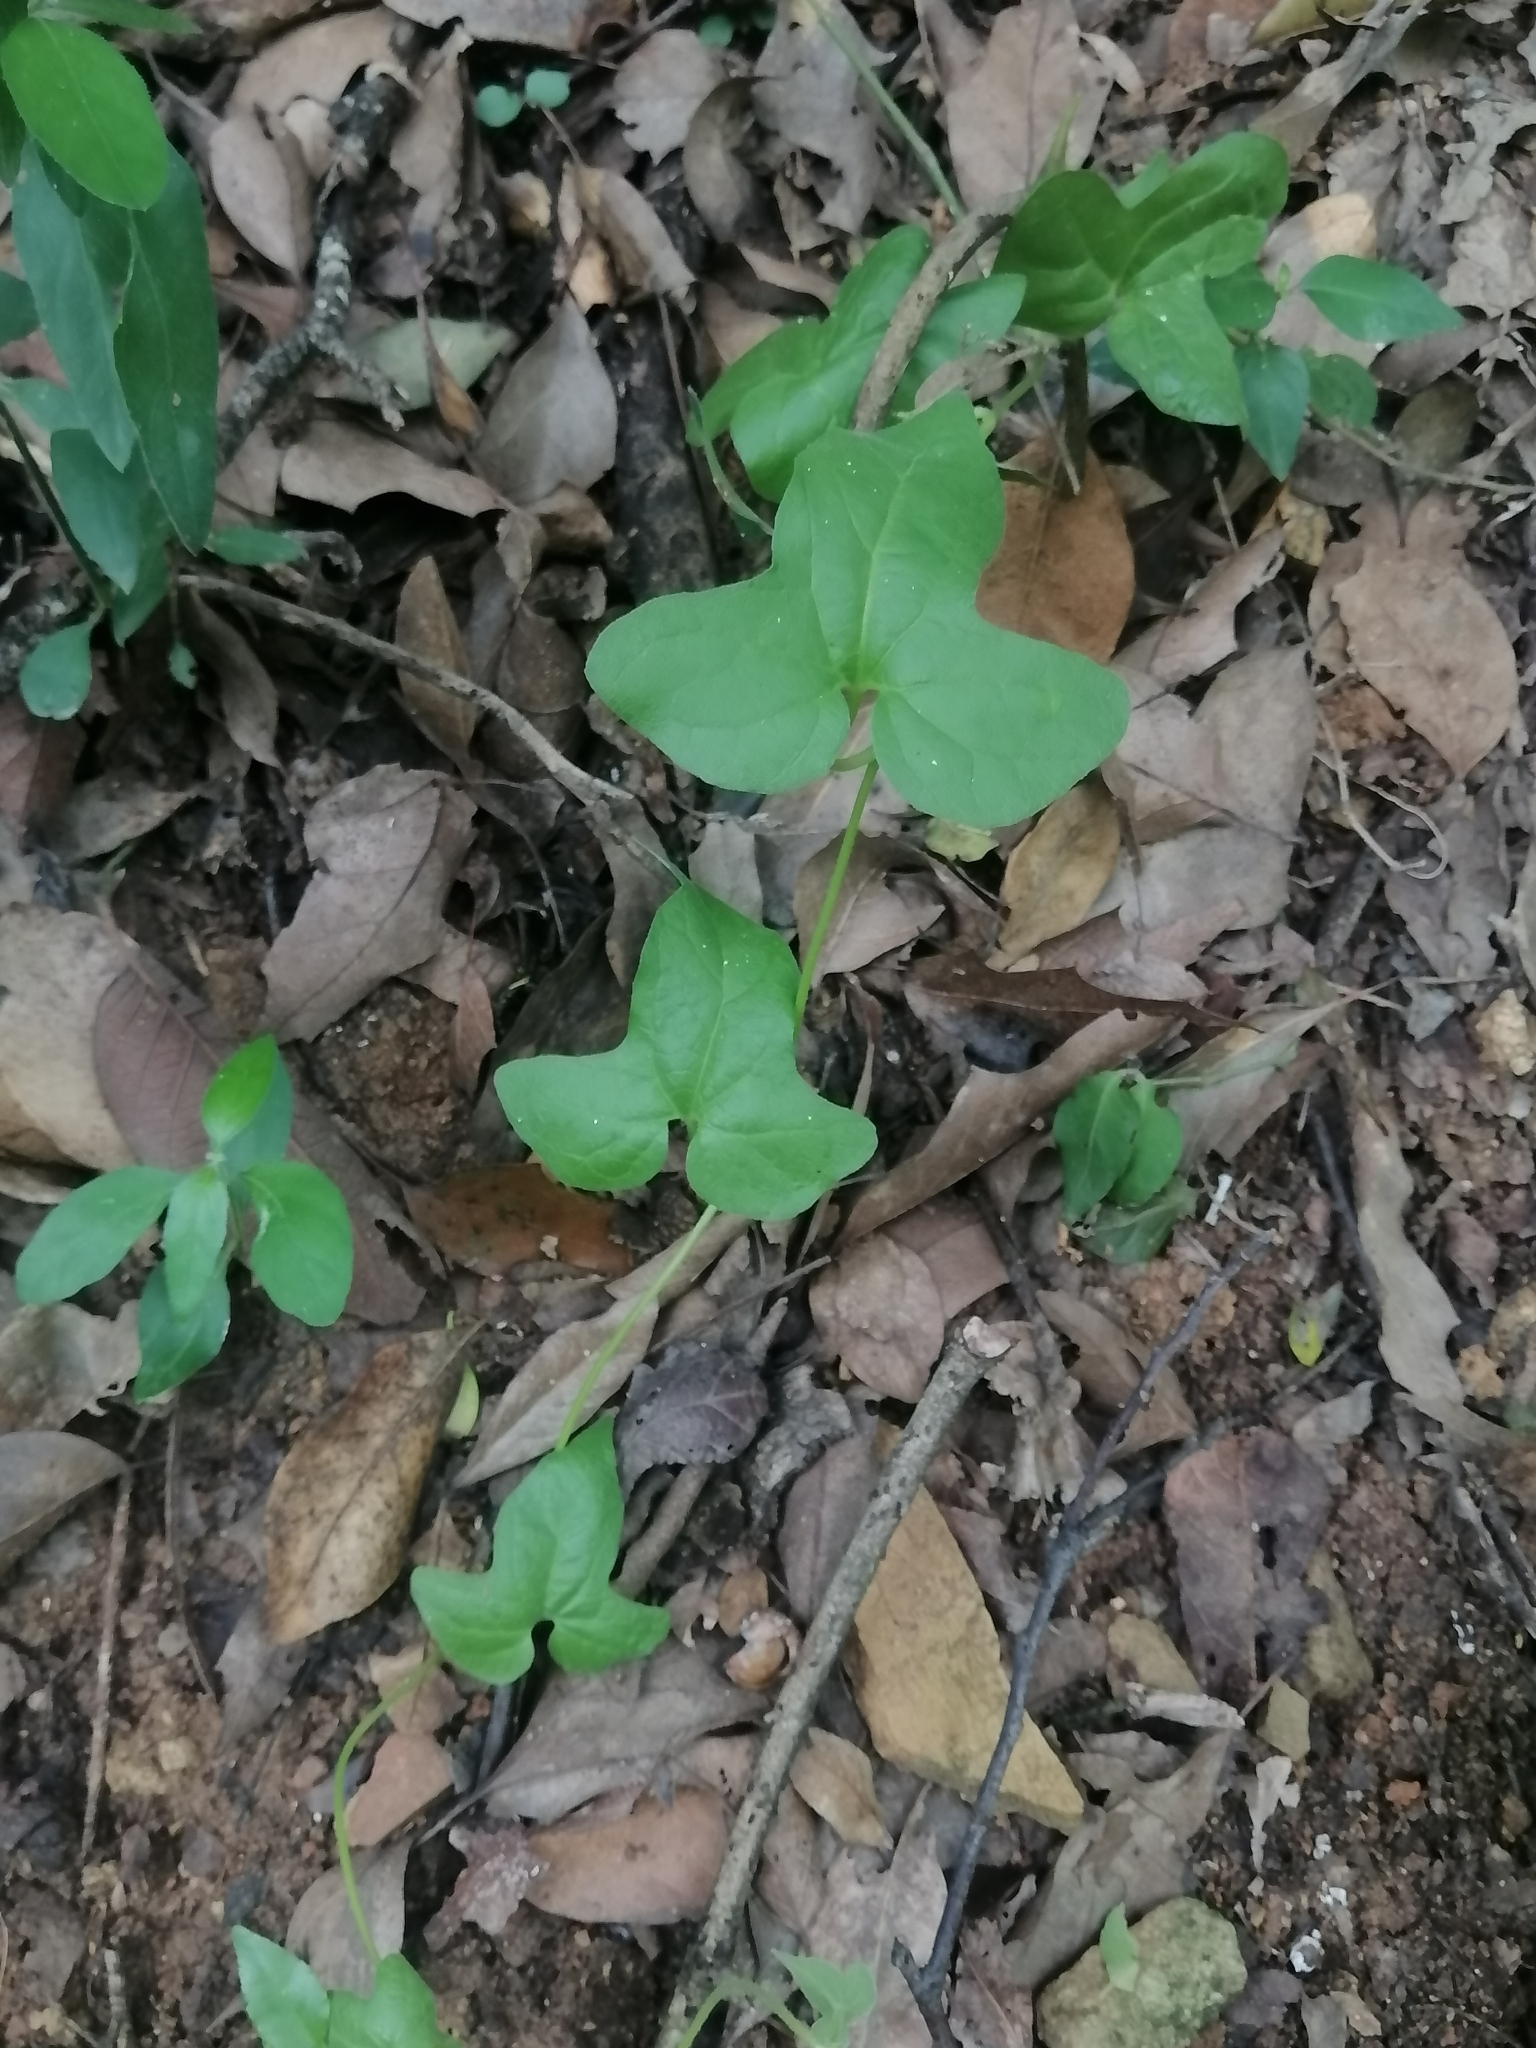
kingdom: Plantae
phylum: Tracheophyta
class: Magnoliopsida
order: Piperales
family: Aristolochiaceae
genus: Aristolochia
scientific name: Aristolochia pentandra
